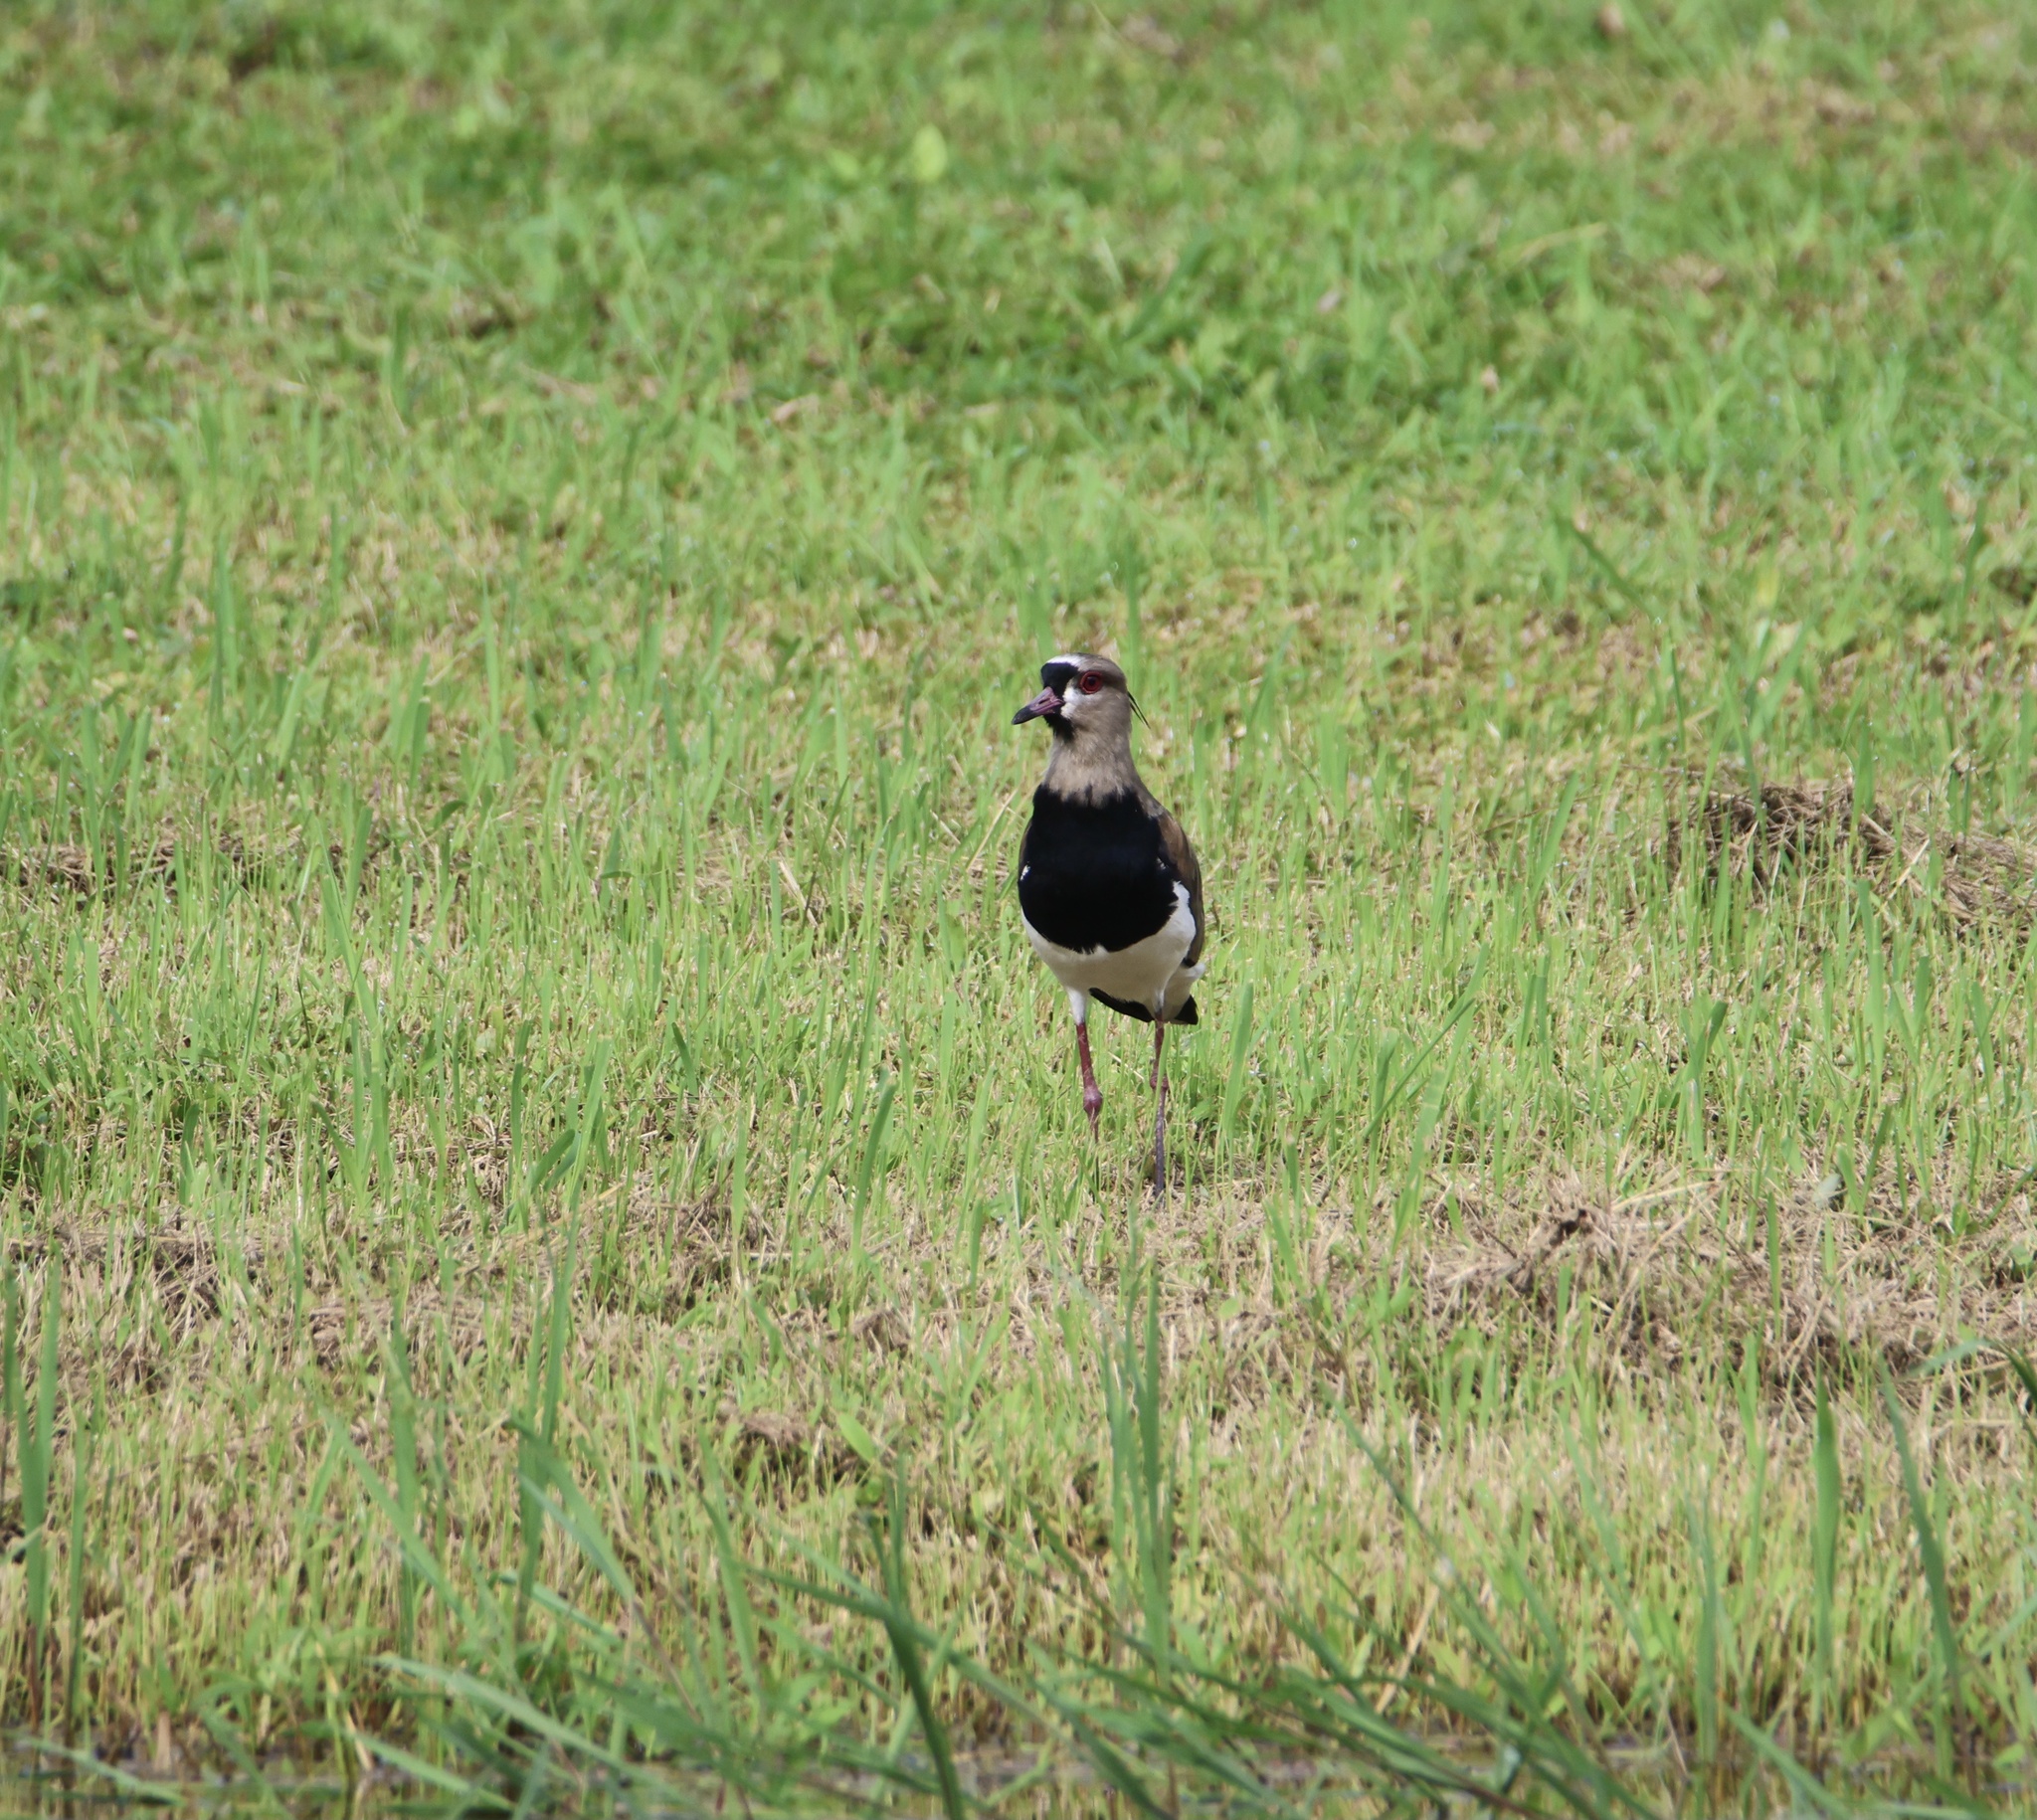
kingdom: Animalia
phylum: Chordata
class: Aves
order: Charadriiformes
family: Charadriidae
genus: Vanellus
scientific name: Vanellus chilensis
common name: Southern lapwing
